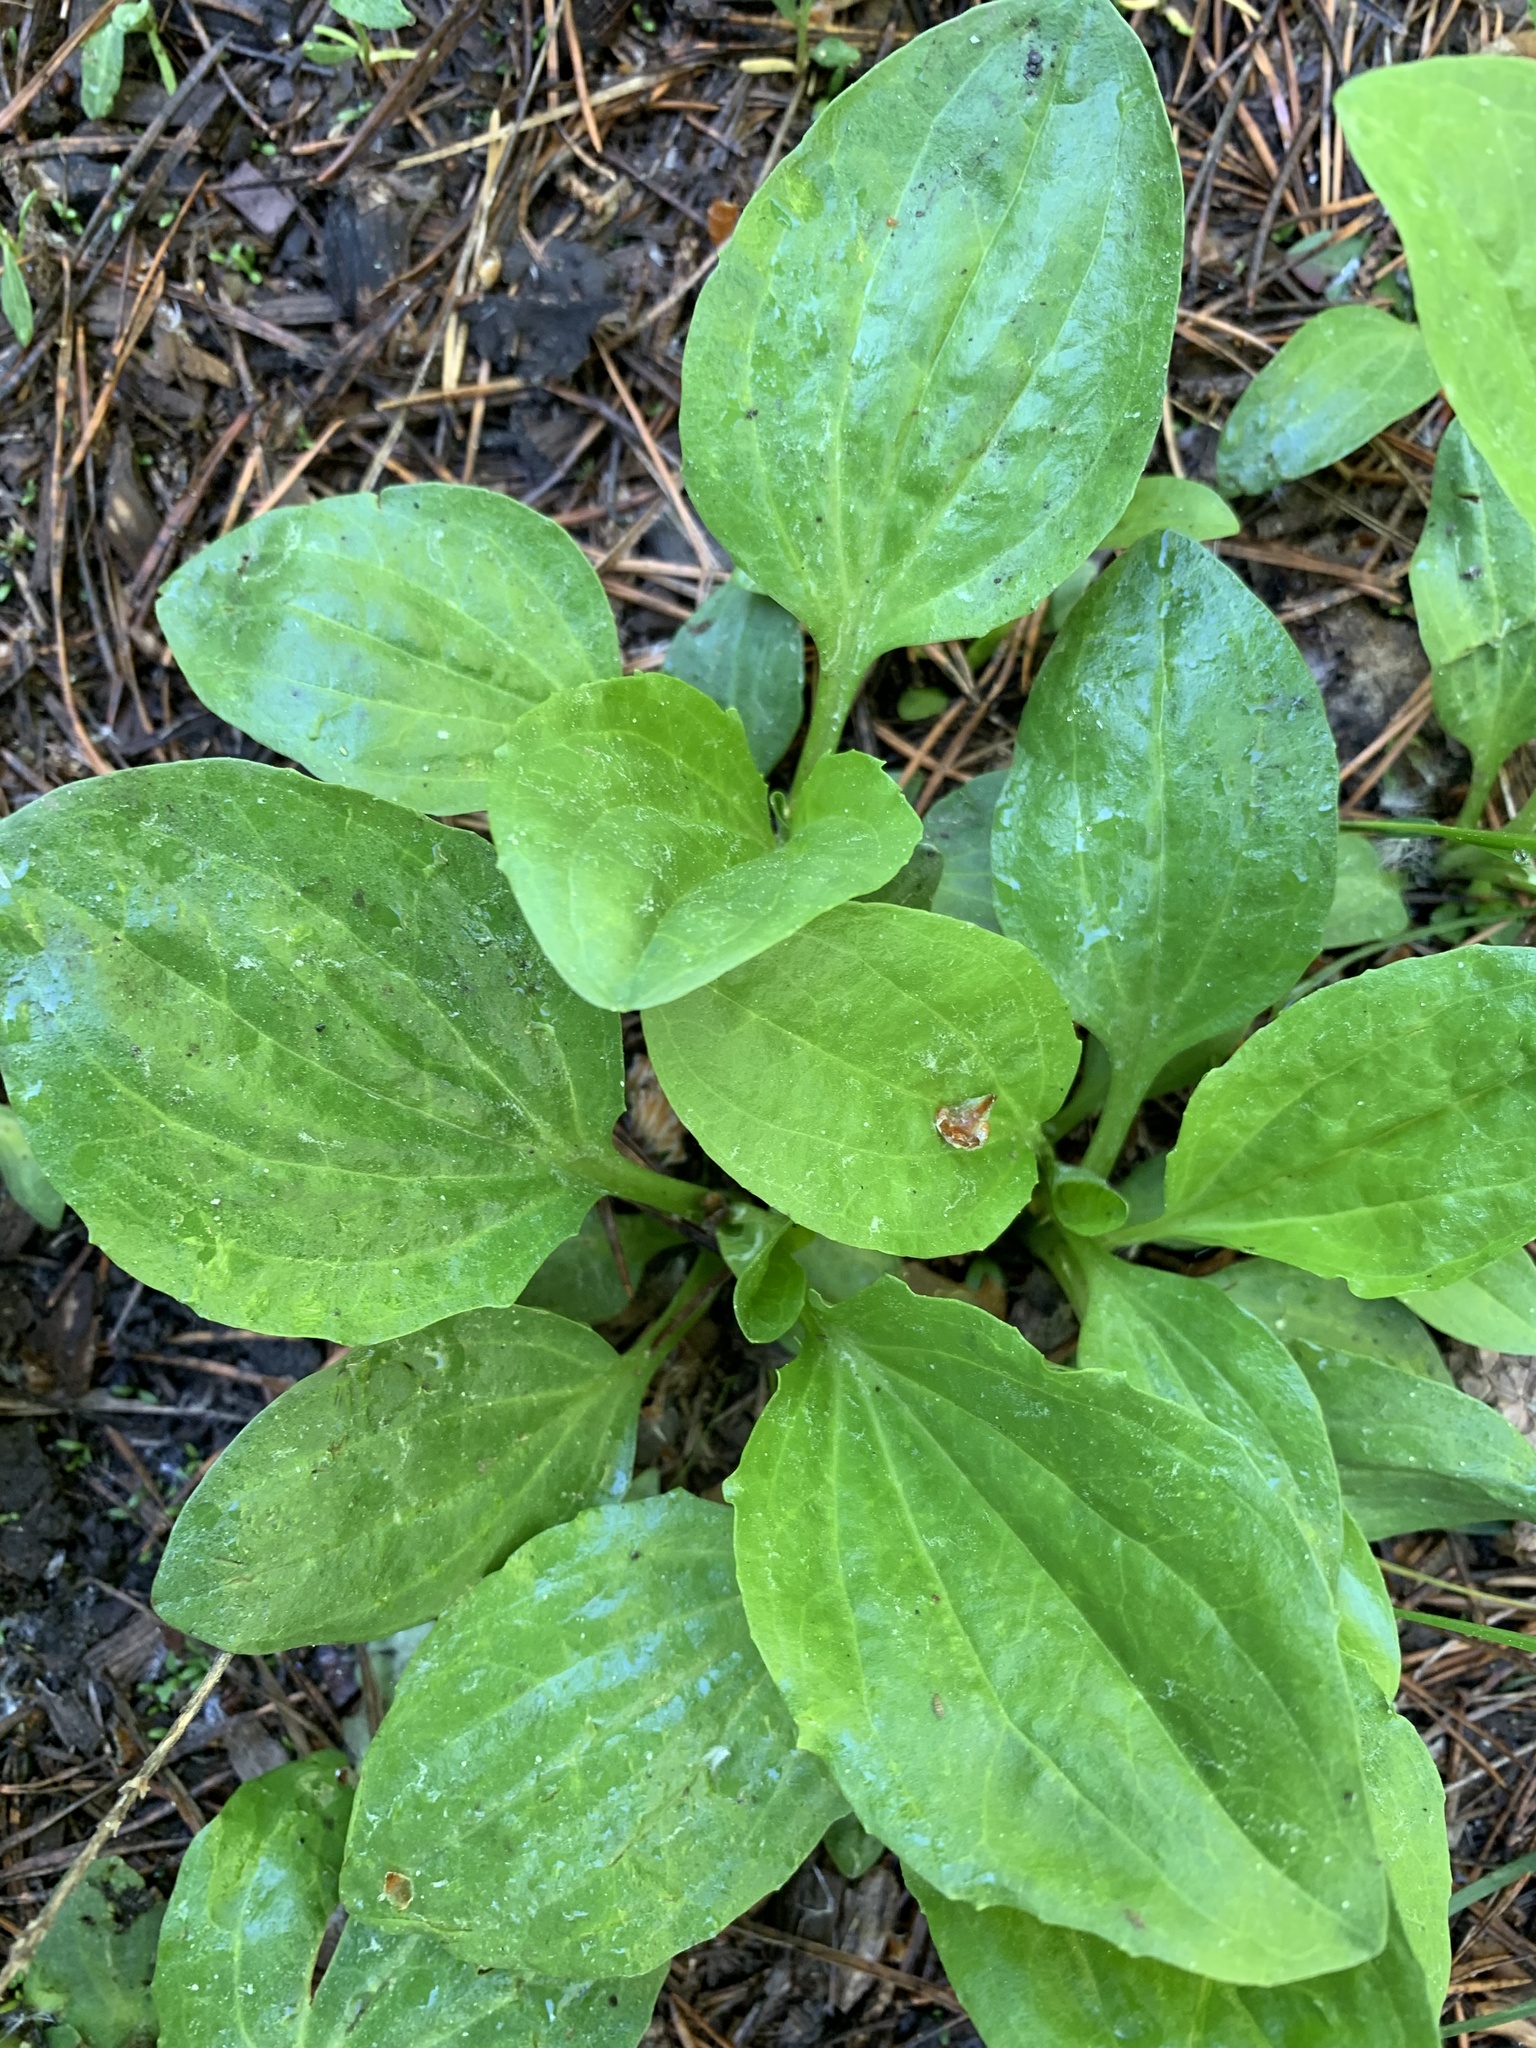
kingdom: Plantae
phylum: Tracheophyta
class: Magnoliopsida
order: Lamiales
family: Plantaginaceae
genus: Plantago
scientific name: Plantago major
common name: Common plantain
